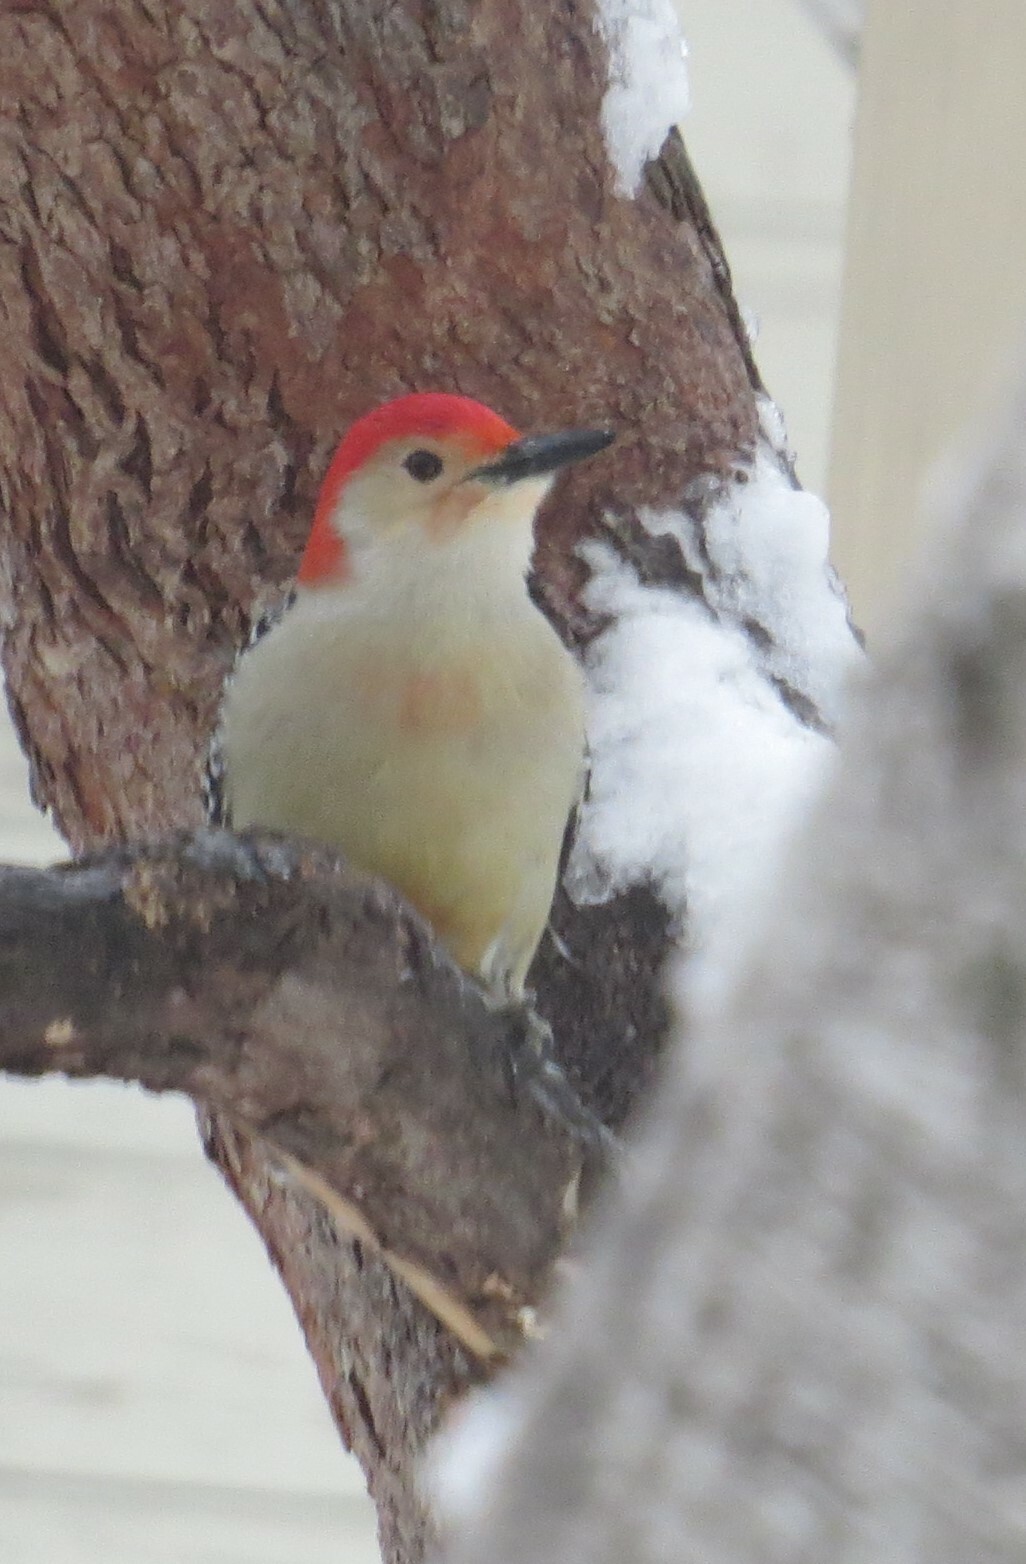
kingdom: Animalia
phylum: Chordata
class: Aves
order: Piciformes
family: Picidae
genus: Melanerpes
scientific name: Melanerpes carolinus
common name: Red-bellied woodpecker
